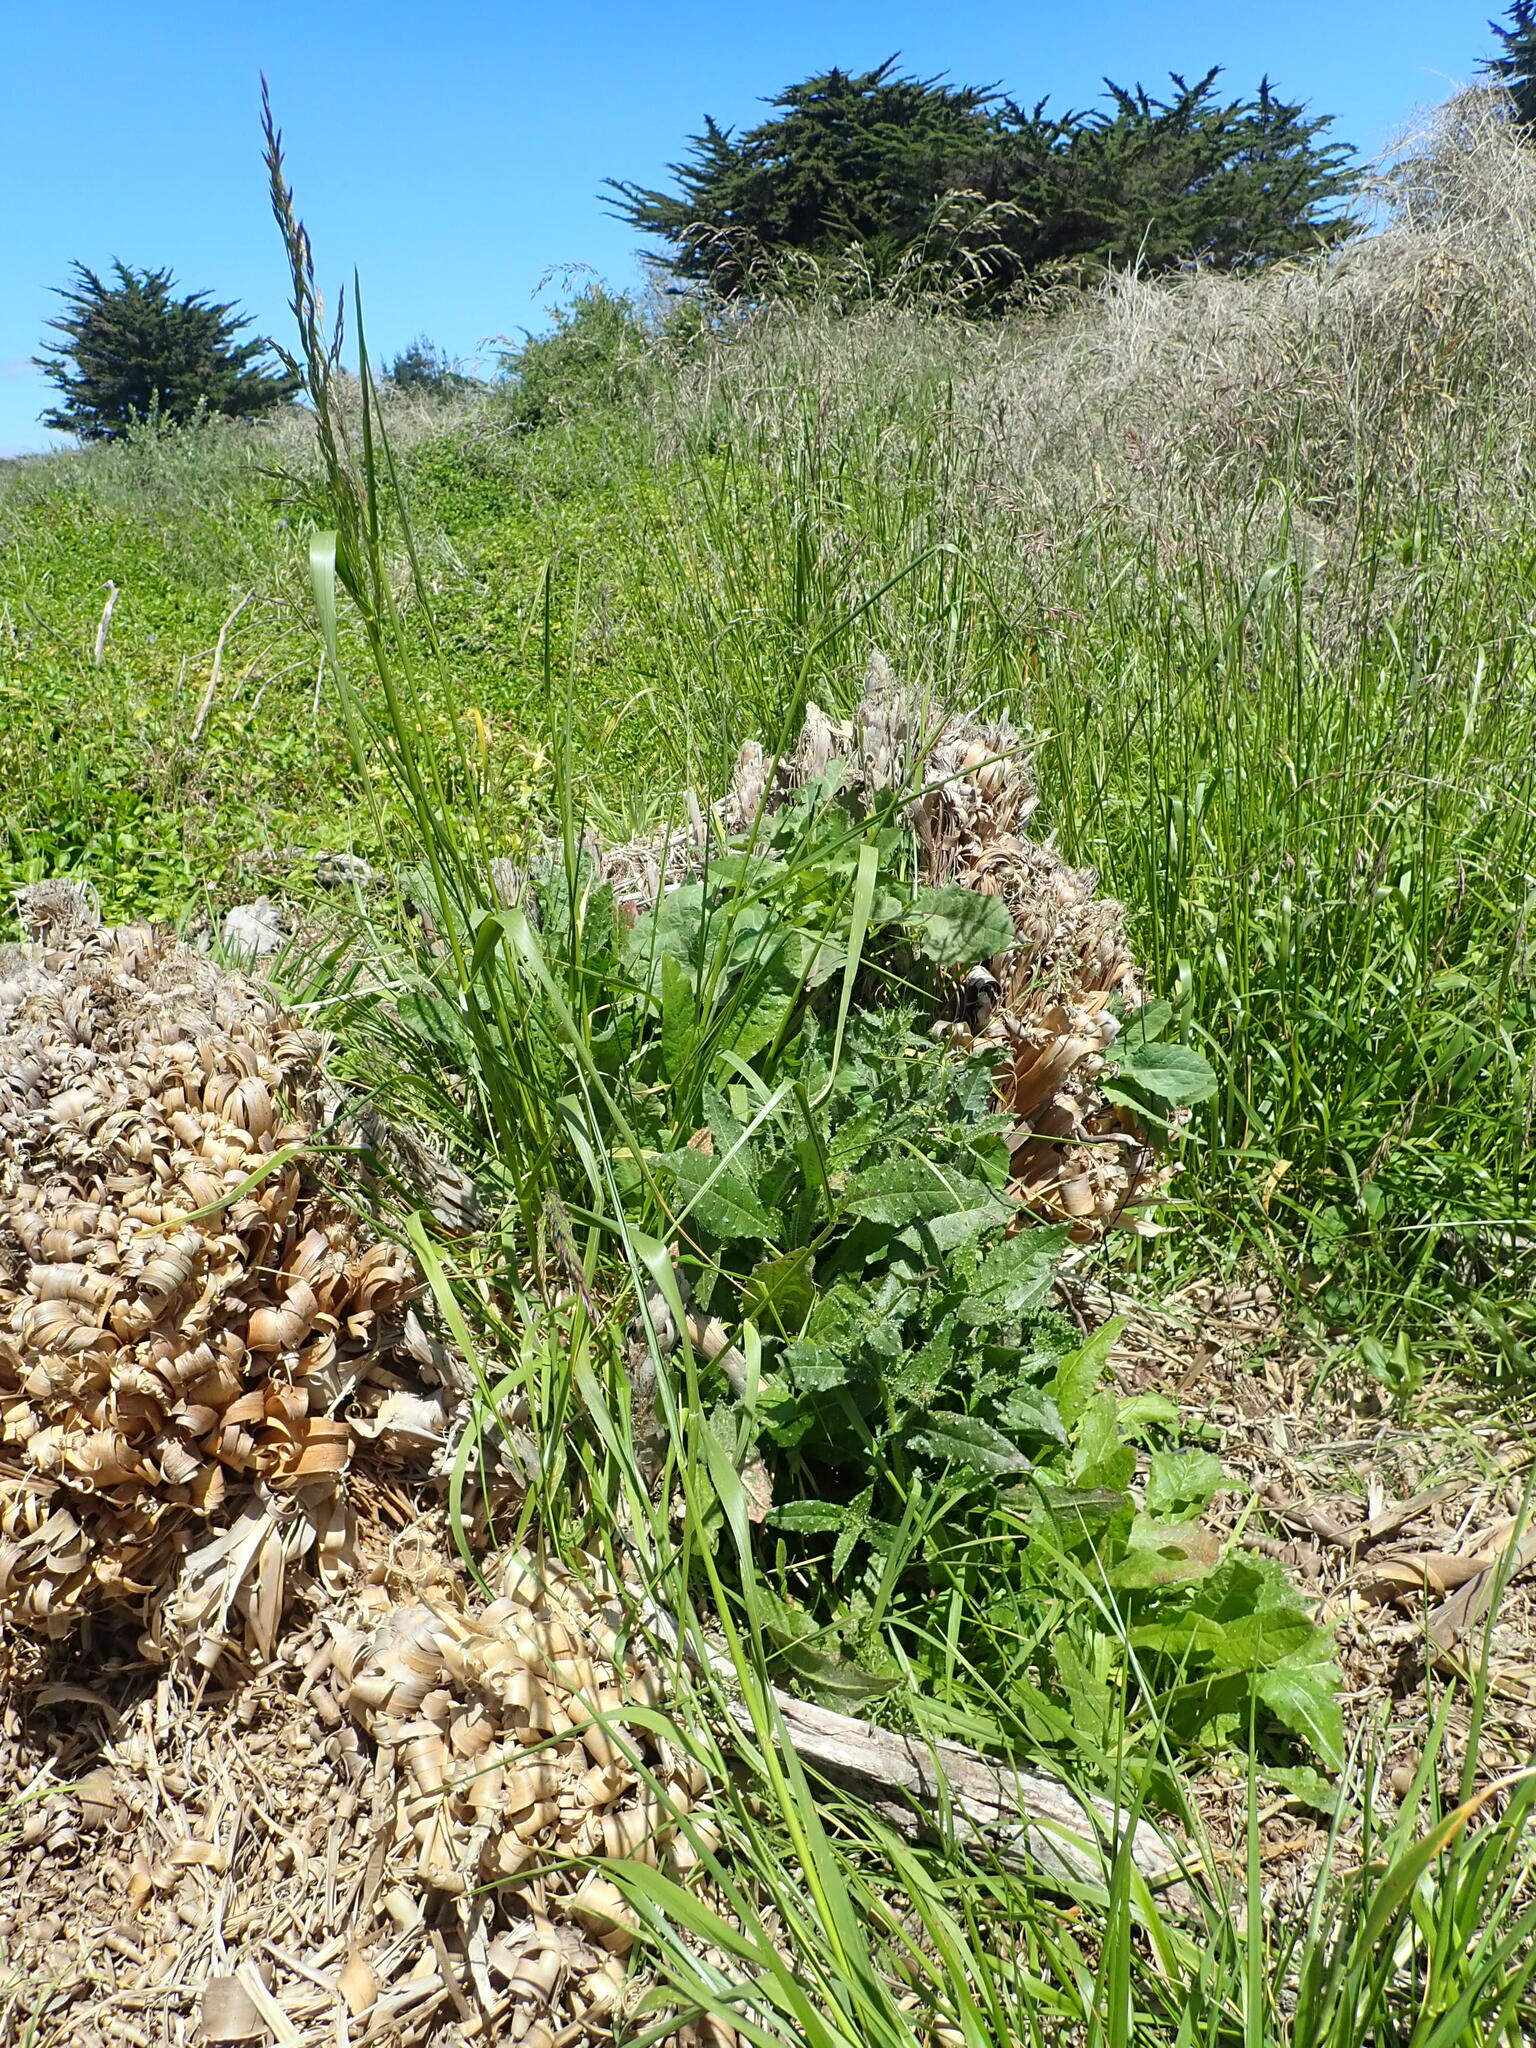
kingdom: Plantae
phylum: Tracheophyta
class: Magnoliopsida
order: Asterales
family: Asteraceae
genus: Helminthotheca
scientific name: Helminthotheca echioides
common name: Ox-tongue
